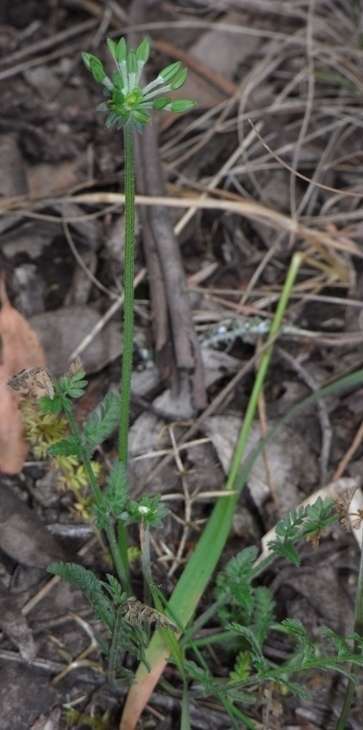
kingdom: Plantae
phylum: Tracheophyta
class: Magnoliopsida
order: Apiales
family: Apiaceae
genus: Chaerophyllum
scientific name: Chaerophyllum eriopodum
